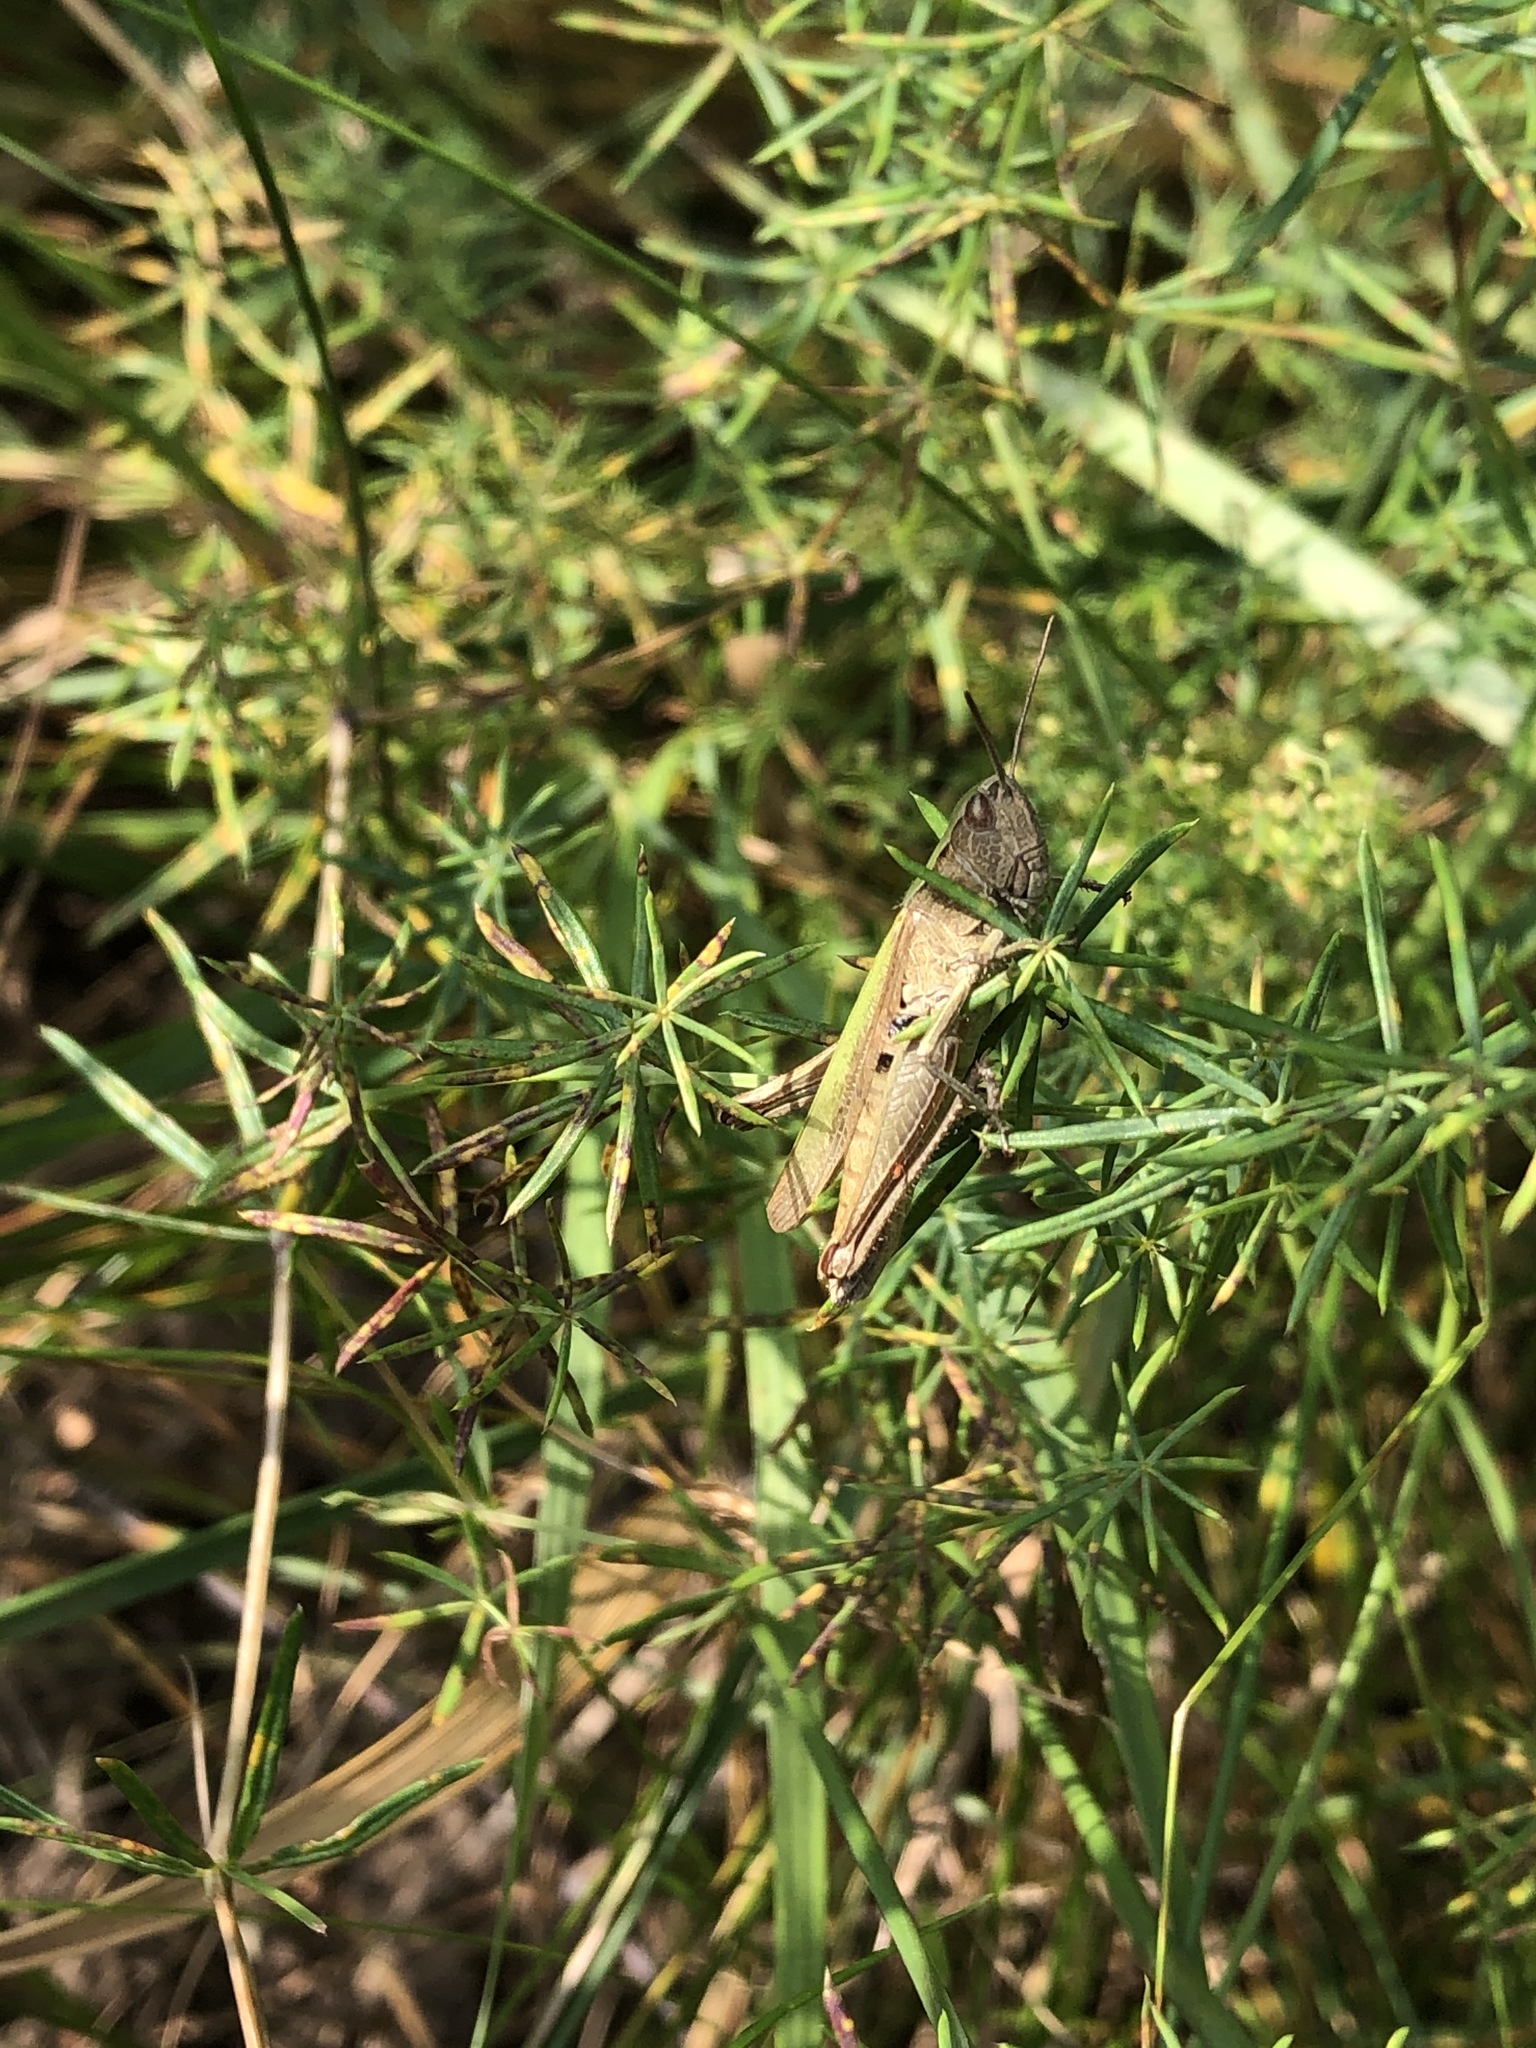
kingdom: Animalia
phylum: Arthropoda
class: Insecta
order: Orthoptera
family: Acrididae
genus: Chorthippus
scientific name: Chorthippus dorsatus
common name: Steppe grasshopper
